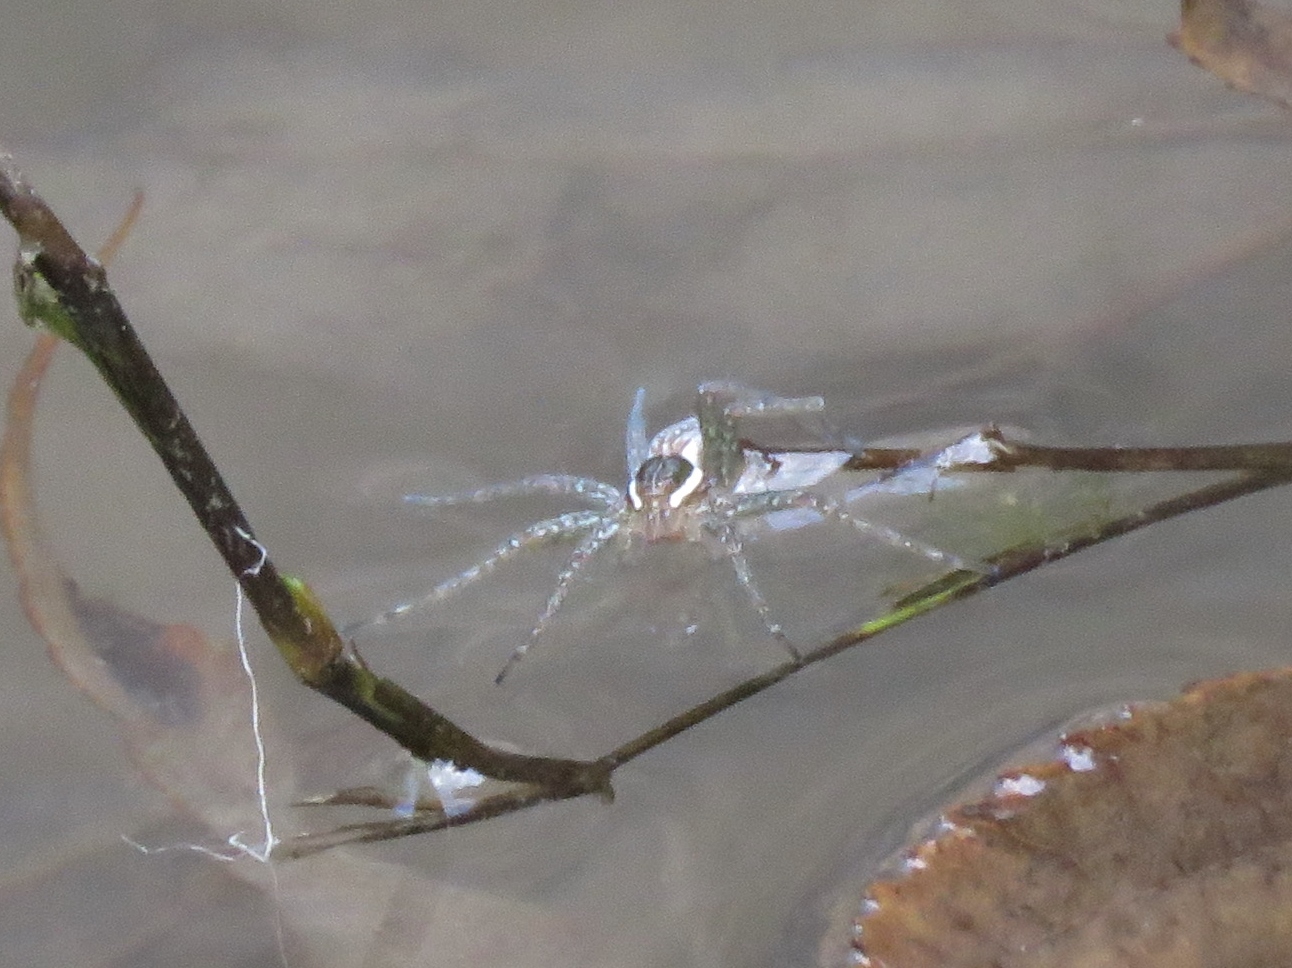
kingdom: Animalia
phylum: Arthropoda
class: Arachnida
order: Araneae
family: Pisauridae
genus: Dolomedes
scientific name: Dolomedes triton
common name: Six-spotted fishing spider
